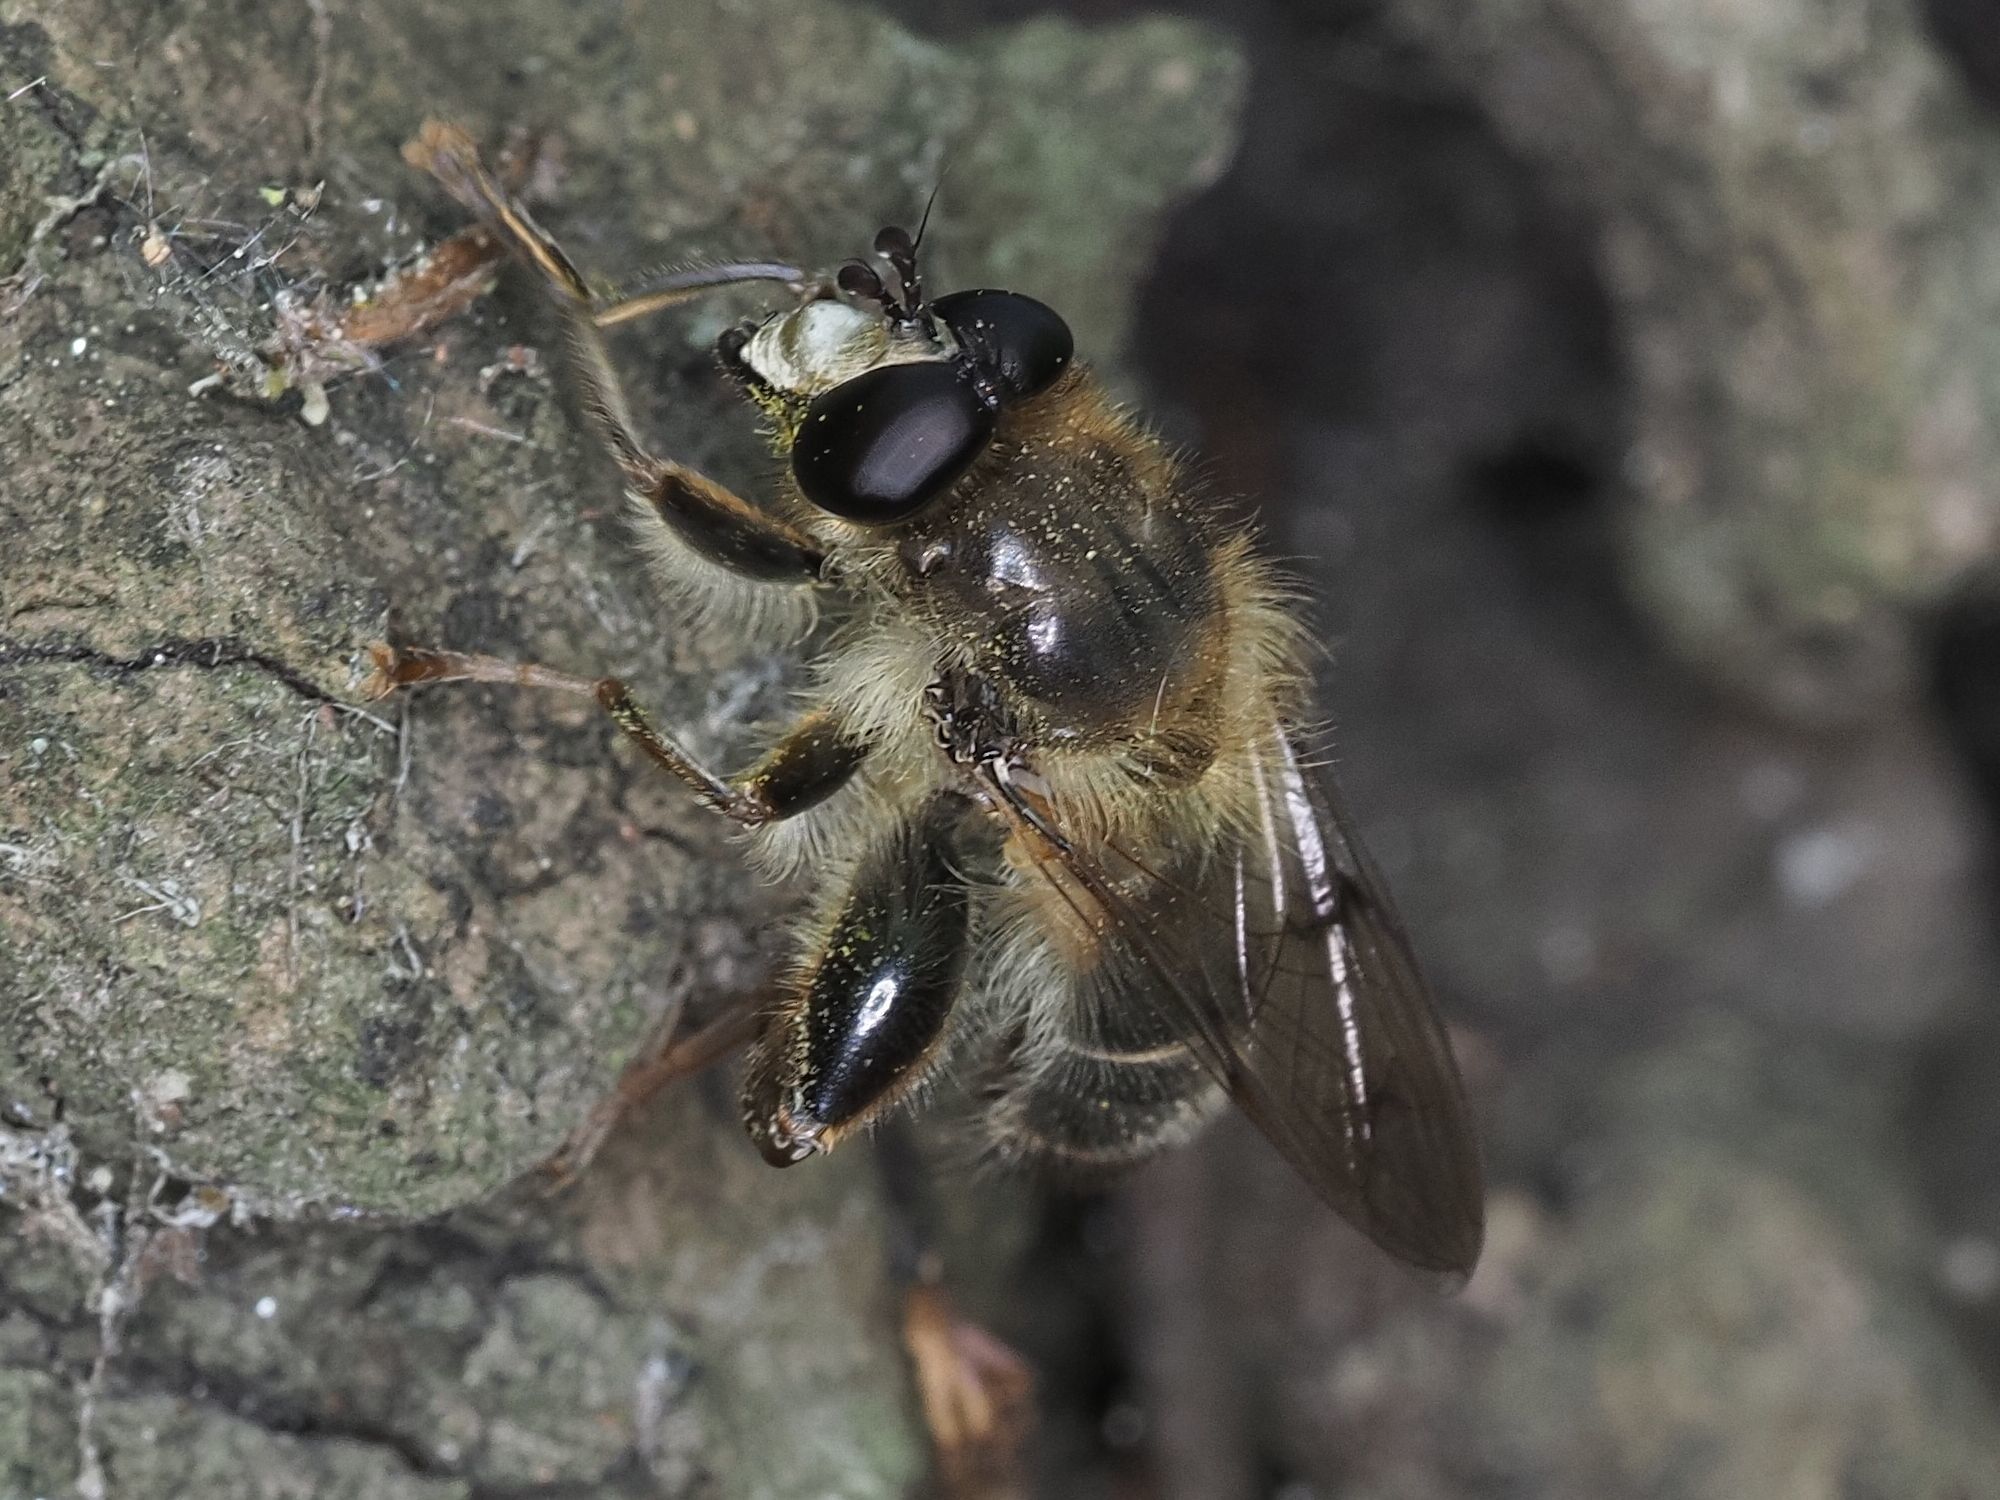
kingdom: Animalia
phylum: Arthropoda
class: Insecta
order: Diptera
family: Syrphidae
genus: Criorhina
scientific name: Criorhina pachymera
